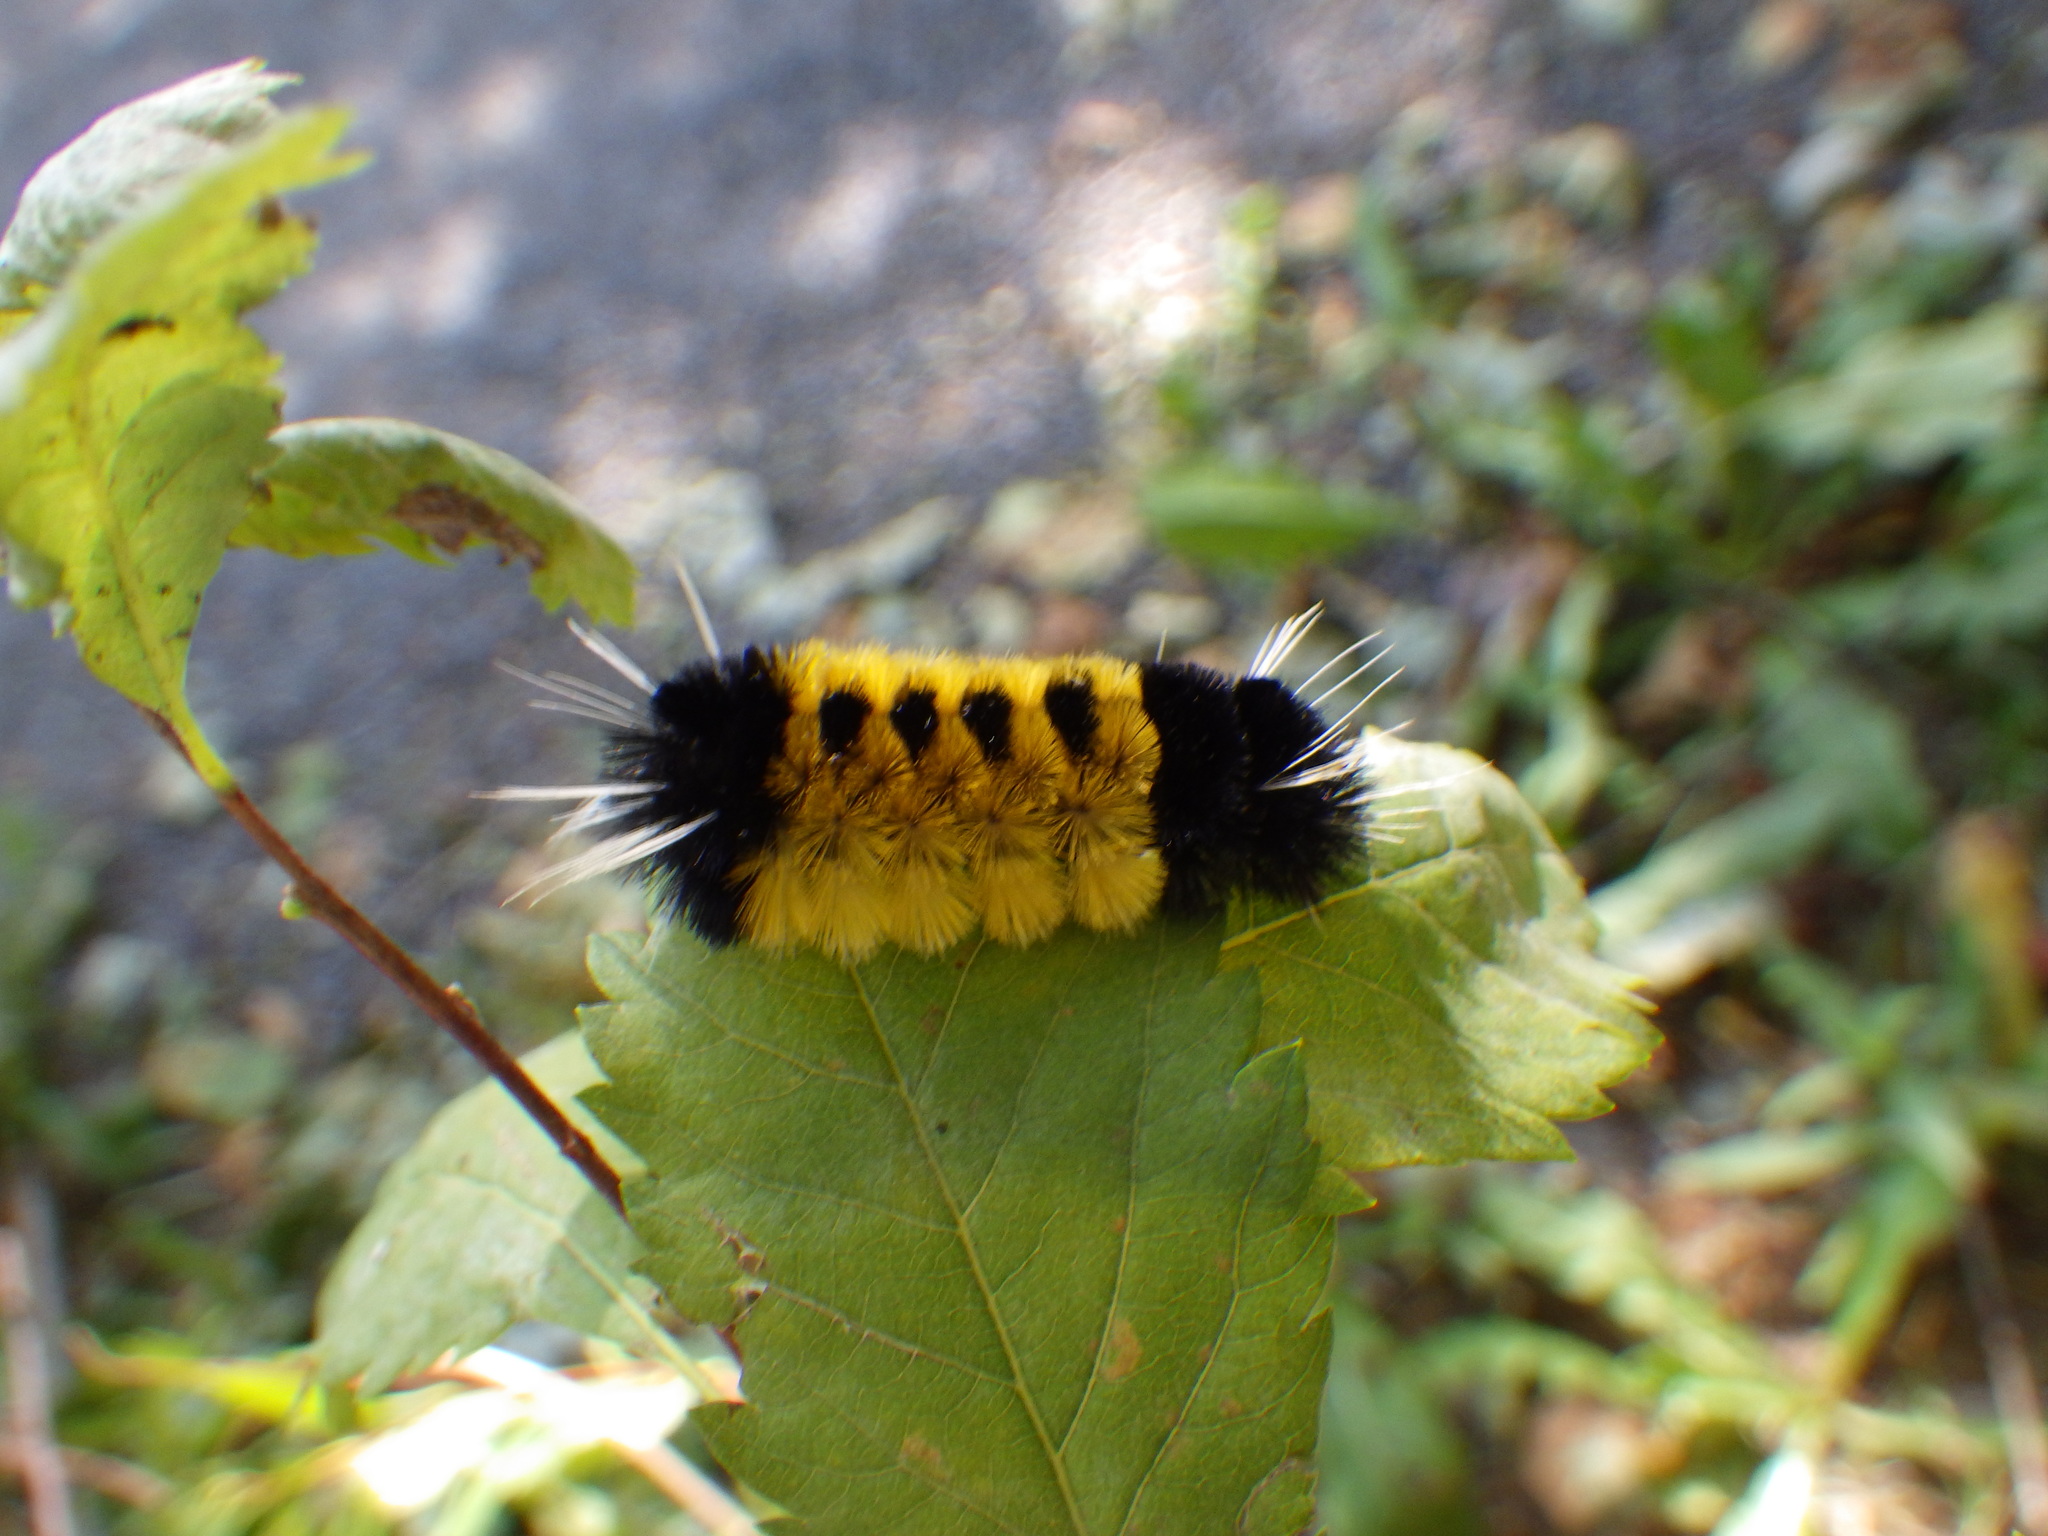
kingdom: Animalia
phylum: Arthropoda
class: Insecta
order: Lepidoptera
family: Erebidae
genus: Lophocampa
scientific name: Lophocampa maculata
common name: Spotted tussock moth
